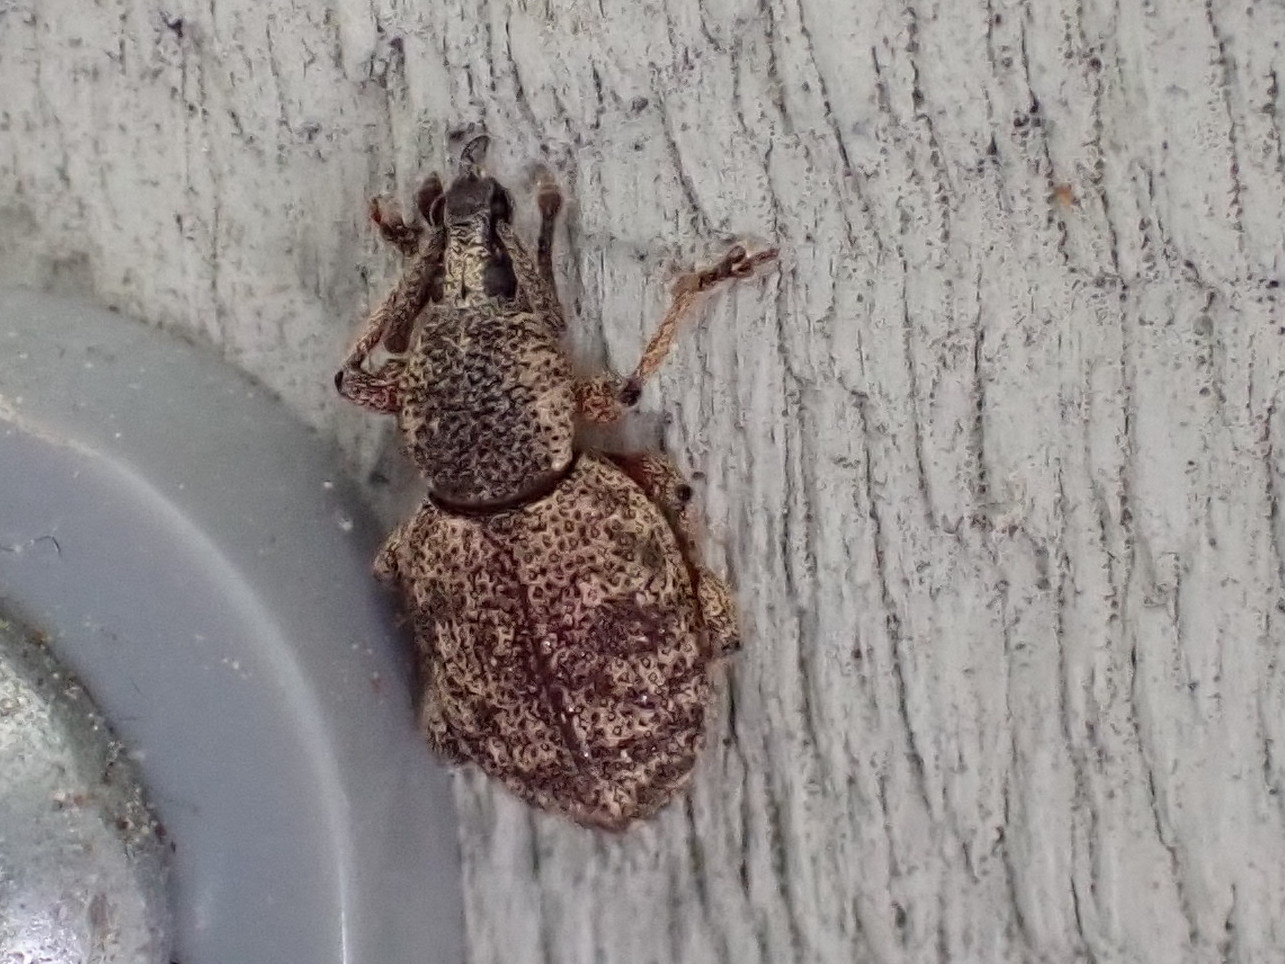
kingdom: Animalia
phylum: Arthropoda
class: Insecta
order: Coleoptera
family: Curculionidae
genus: Otiorhynchus
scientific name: Otiorhynchus singularis
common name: Clay-coloured weevil
